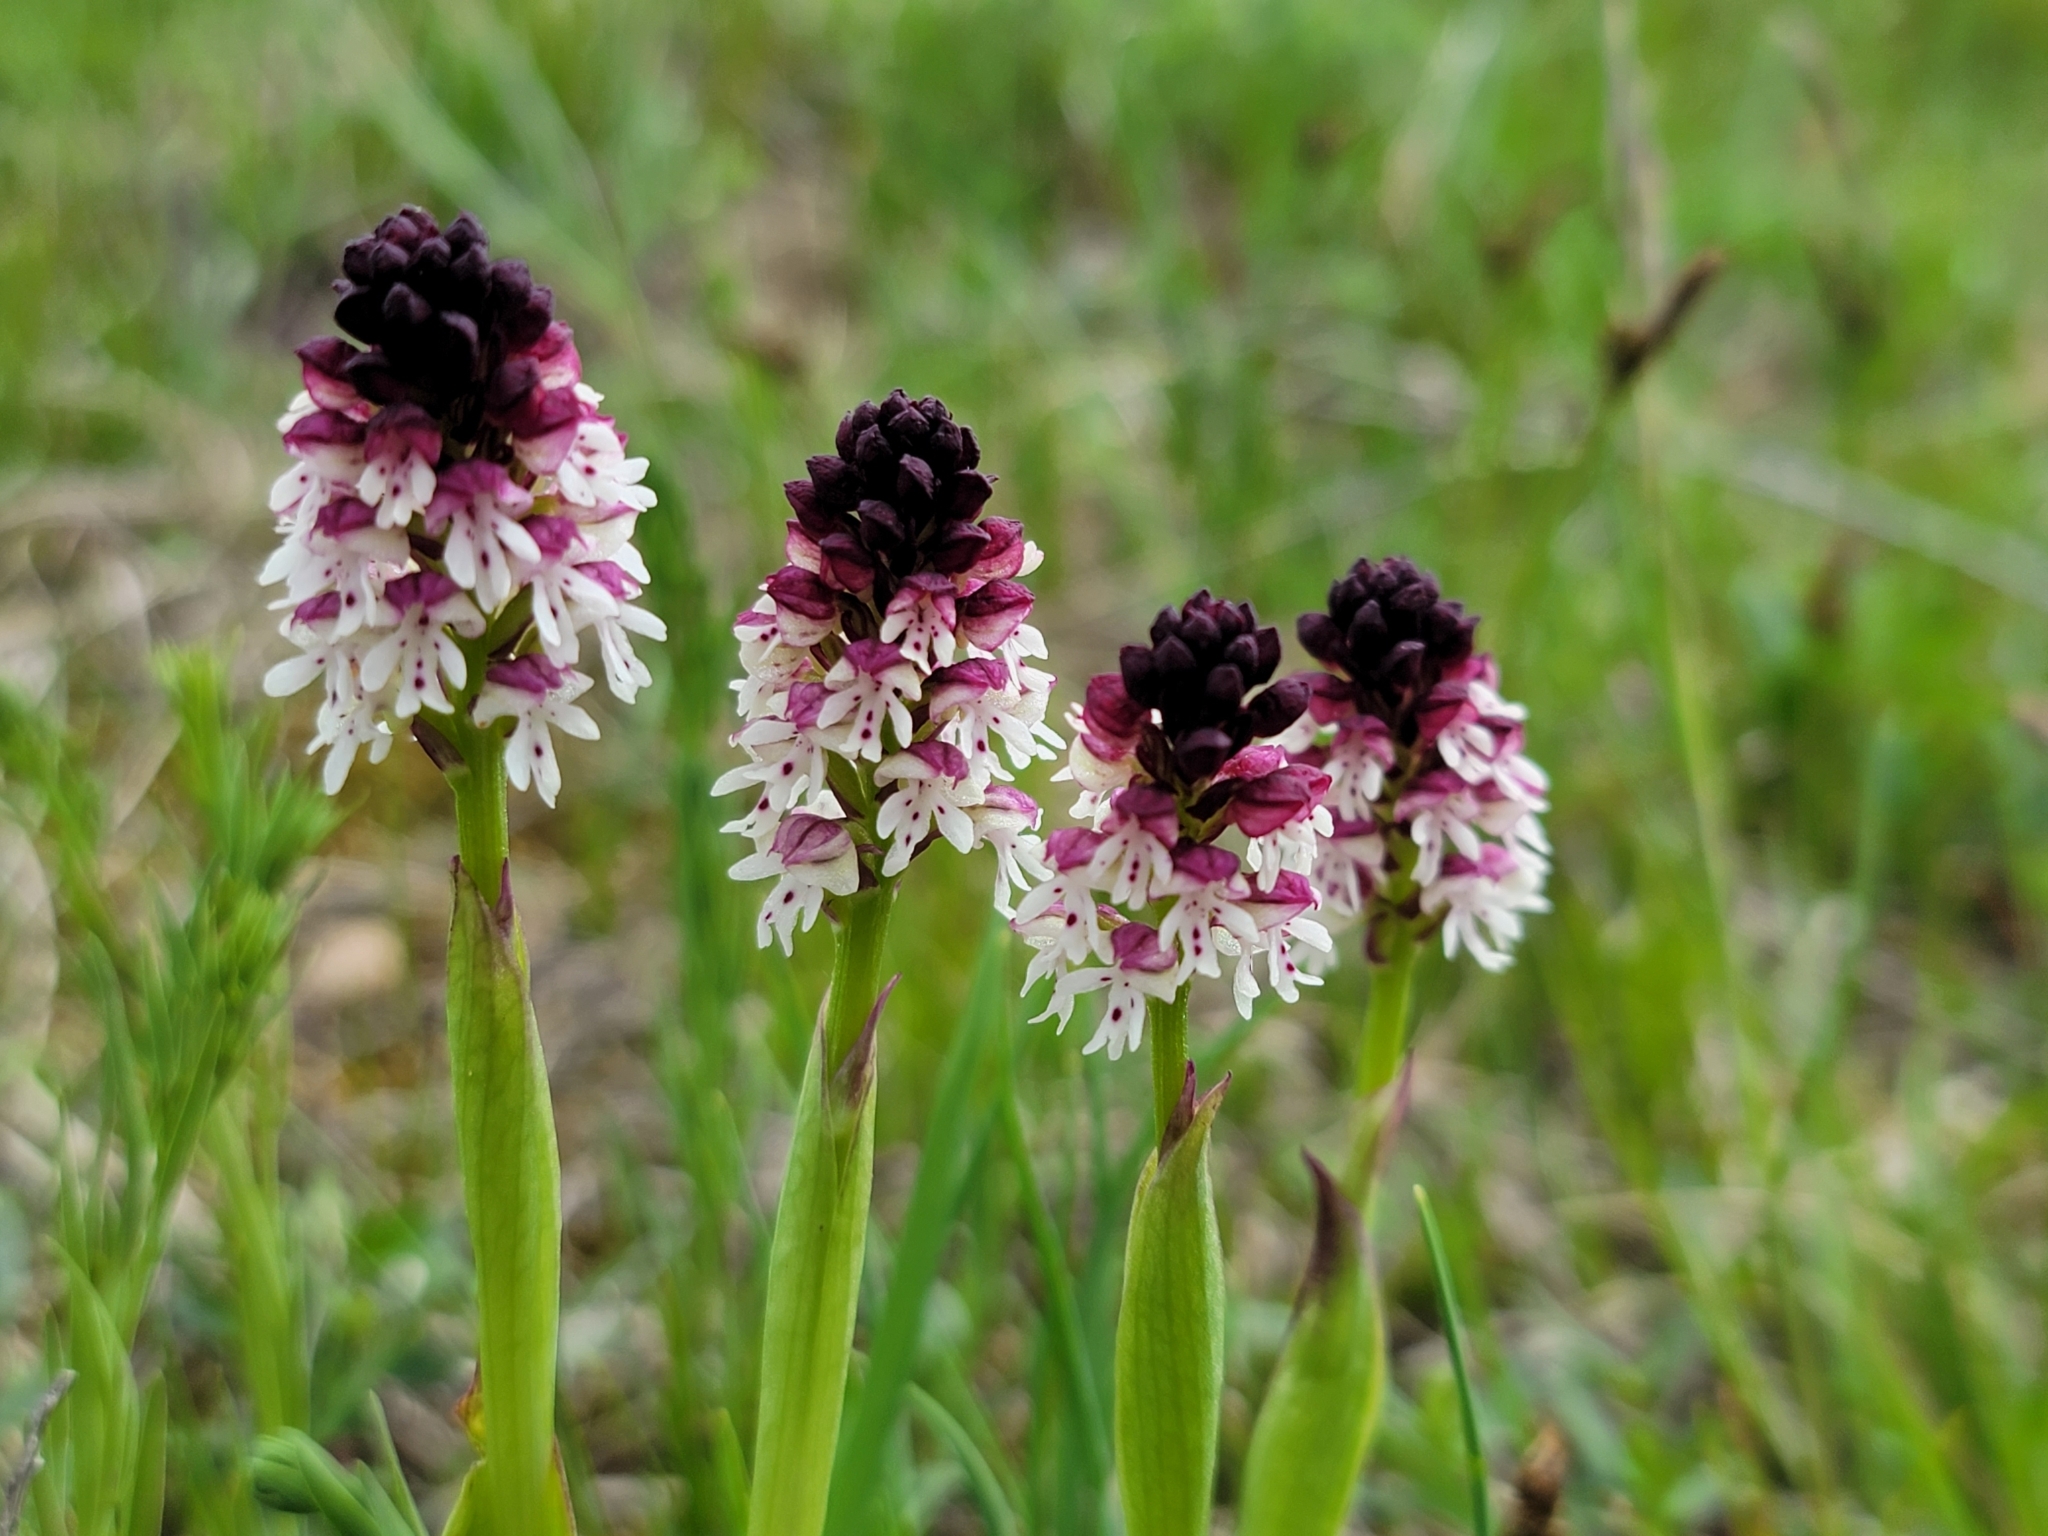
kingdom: Plantae
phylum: Tracheophyta
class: Liliopsida
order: Asparagales
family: Orchidaceae
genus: Neotinea
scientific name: Neotinea ustulata
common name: Burnt orchid
